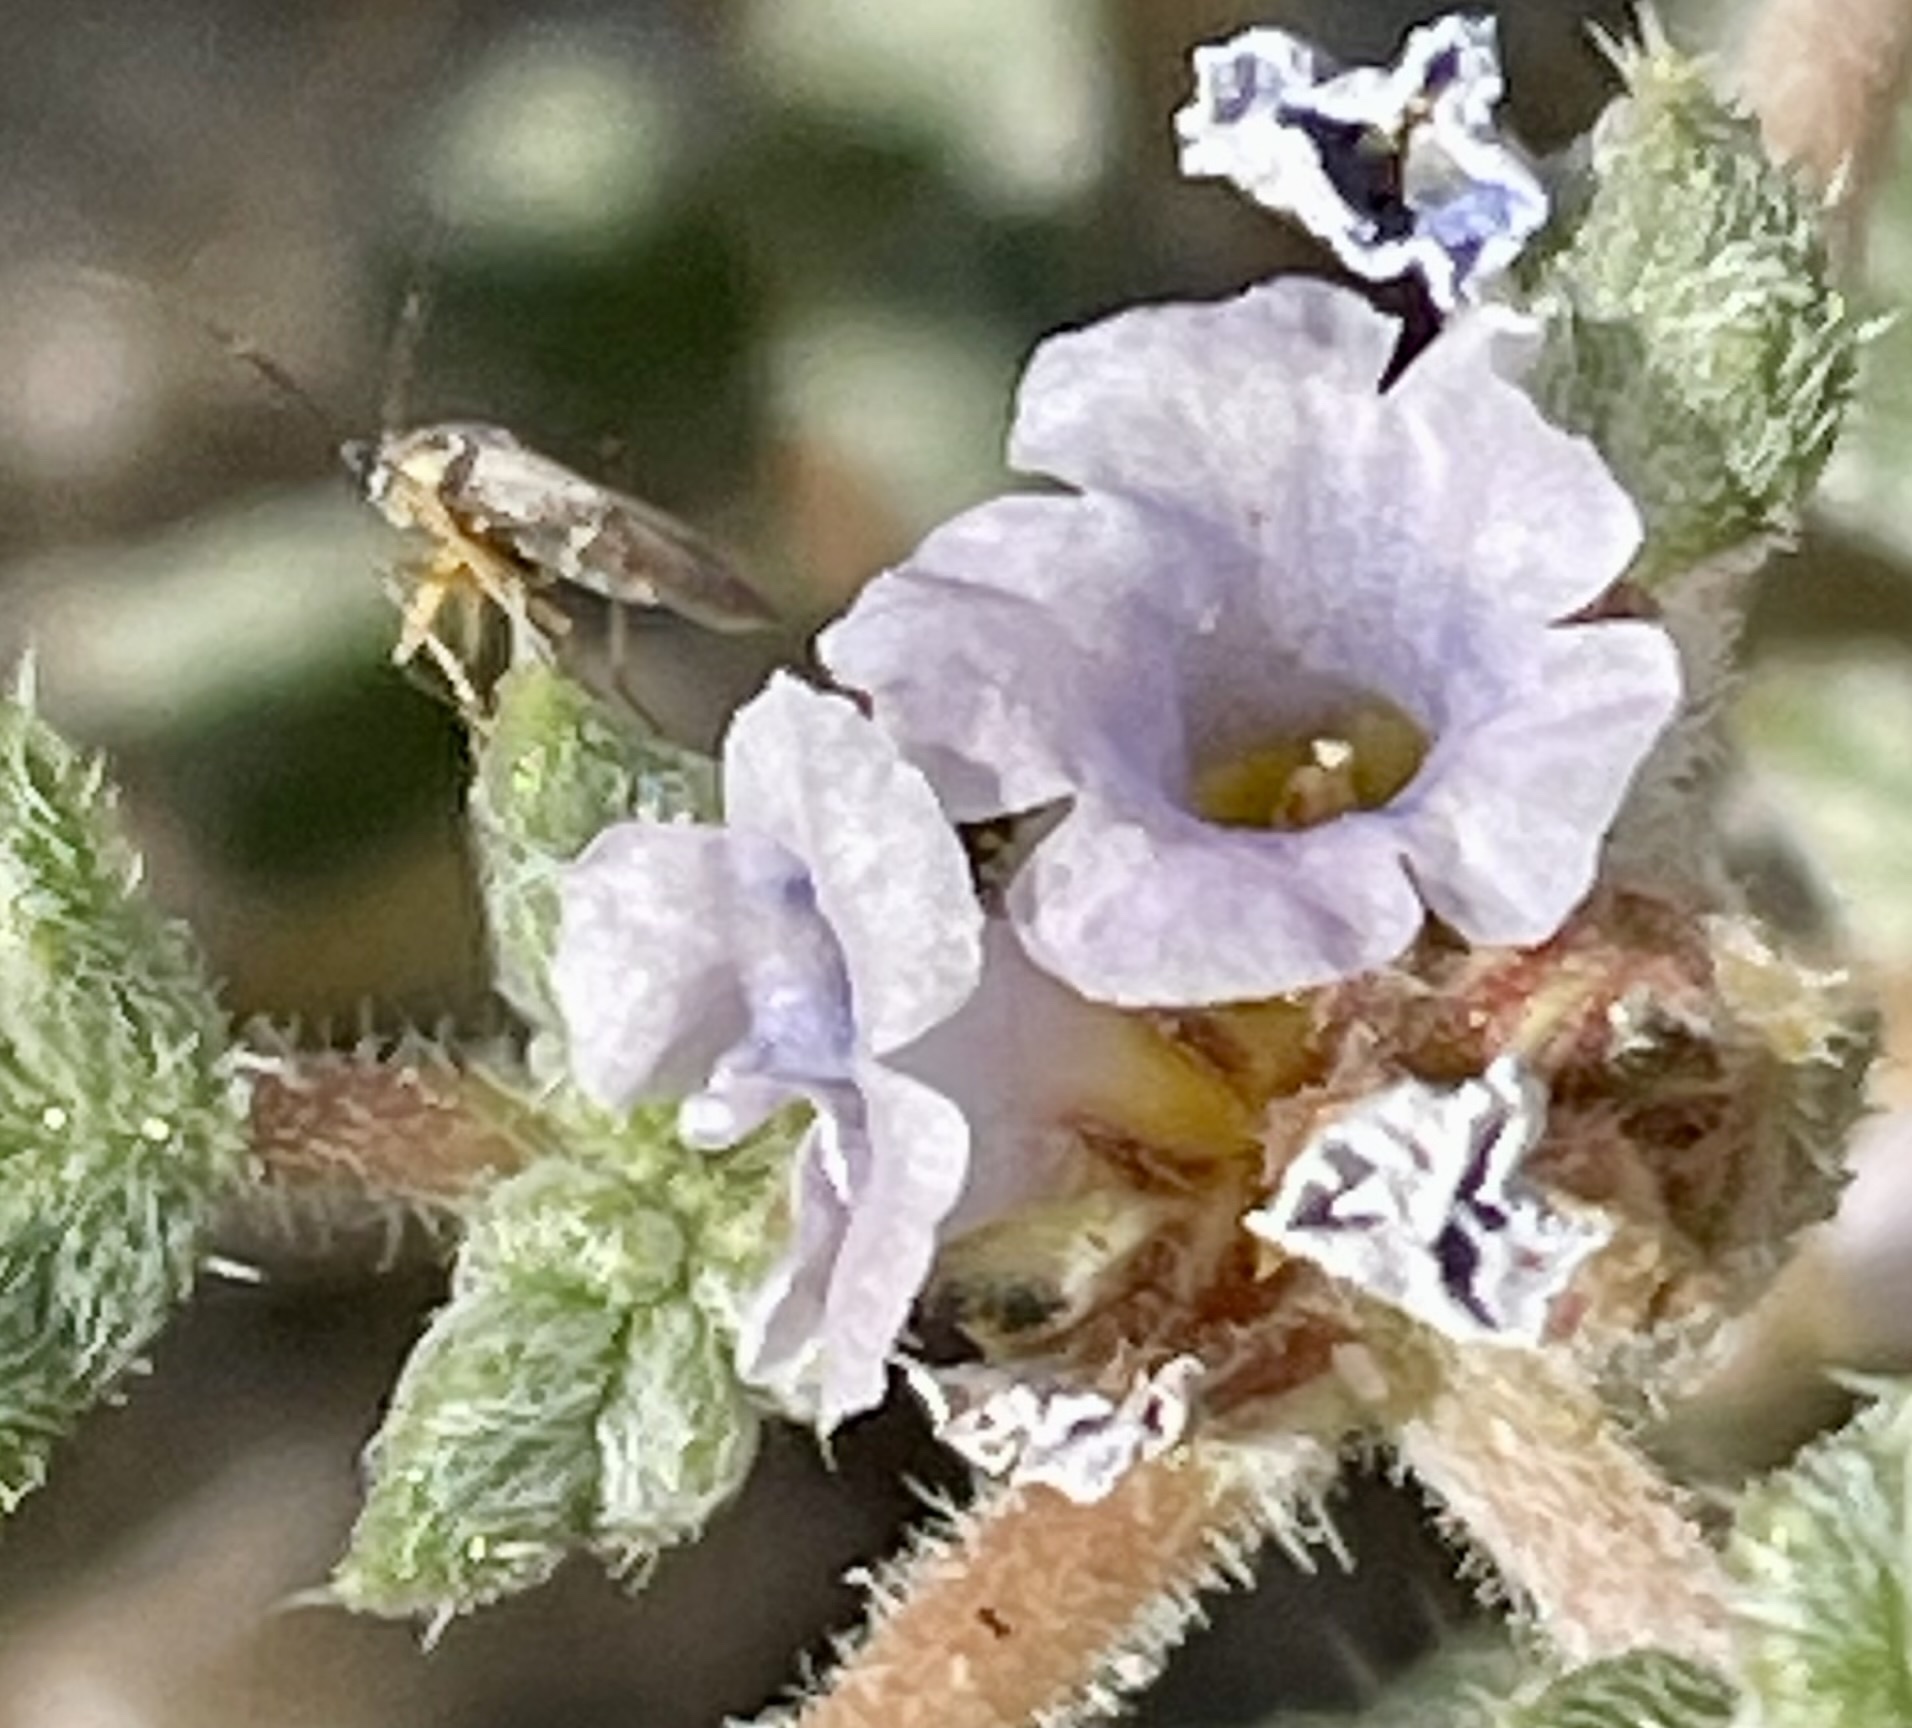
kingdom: Plantae
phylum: Tracheophyta
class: Magnoliopsida
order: Boraginales
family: Ehretiaceae
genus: Tiquilia
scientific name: Tiquilia palmeri
